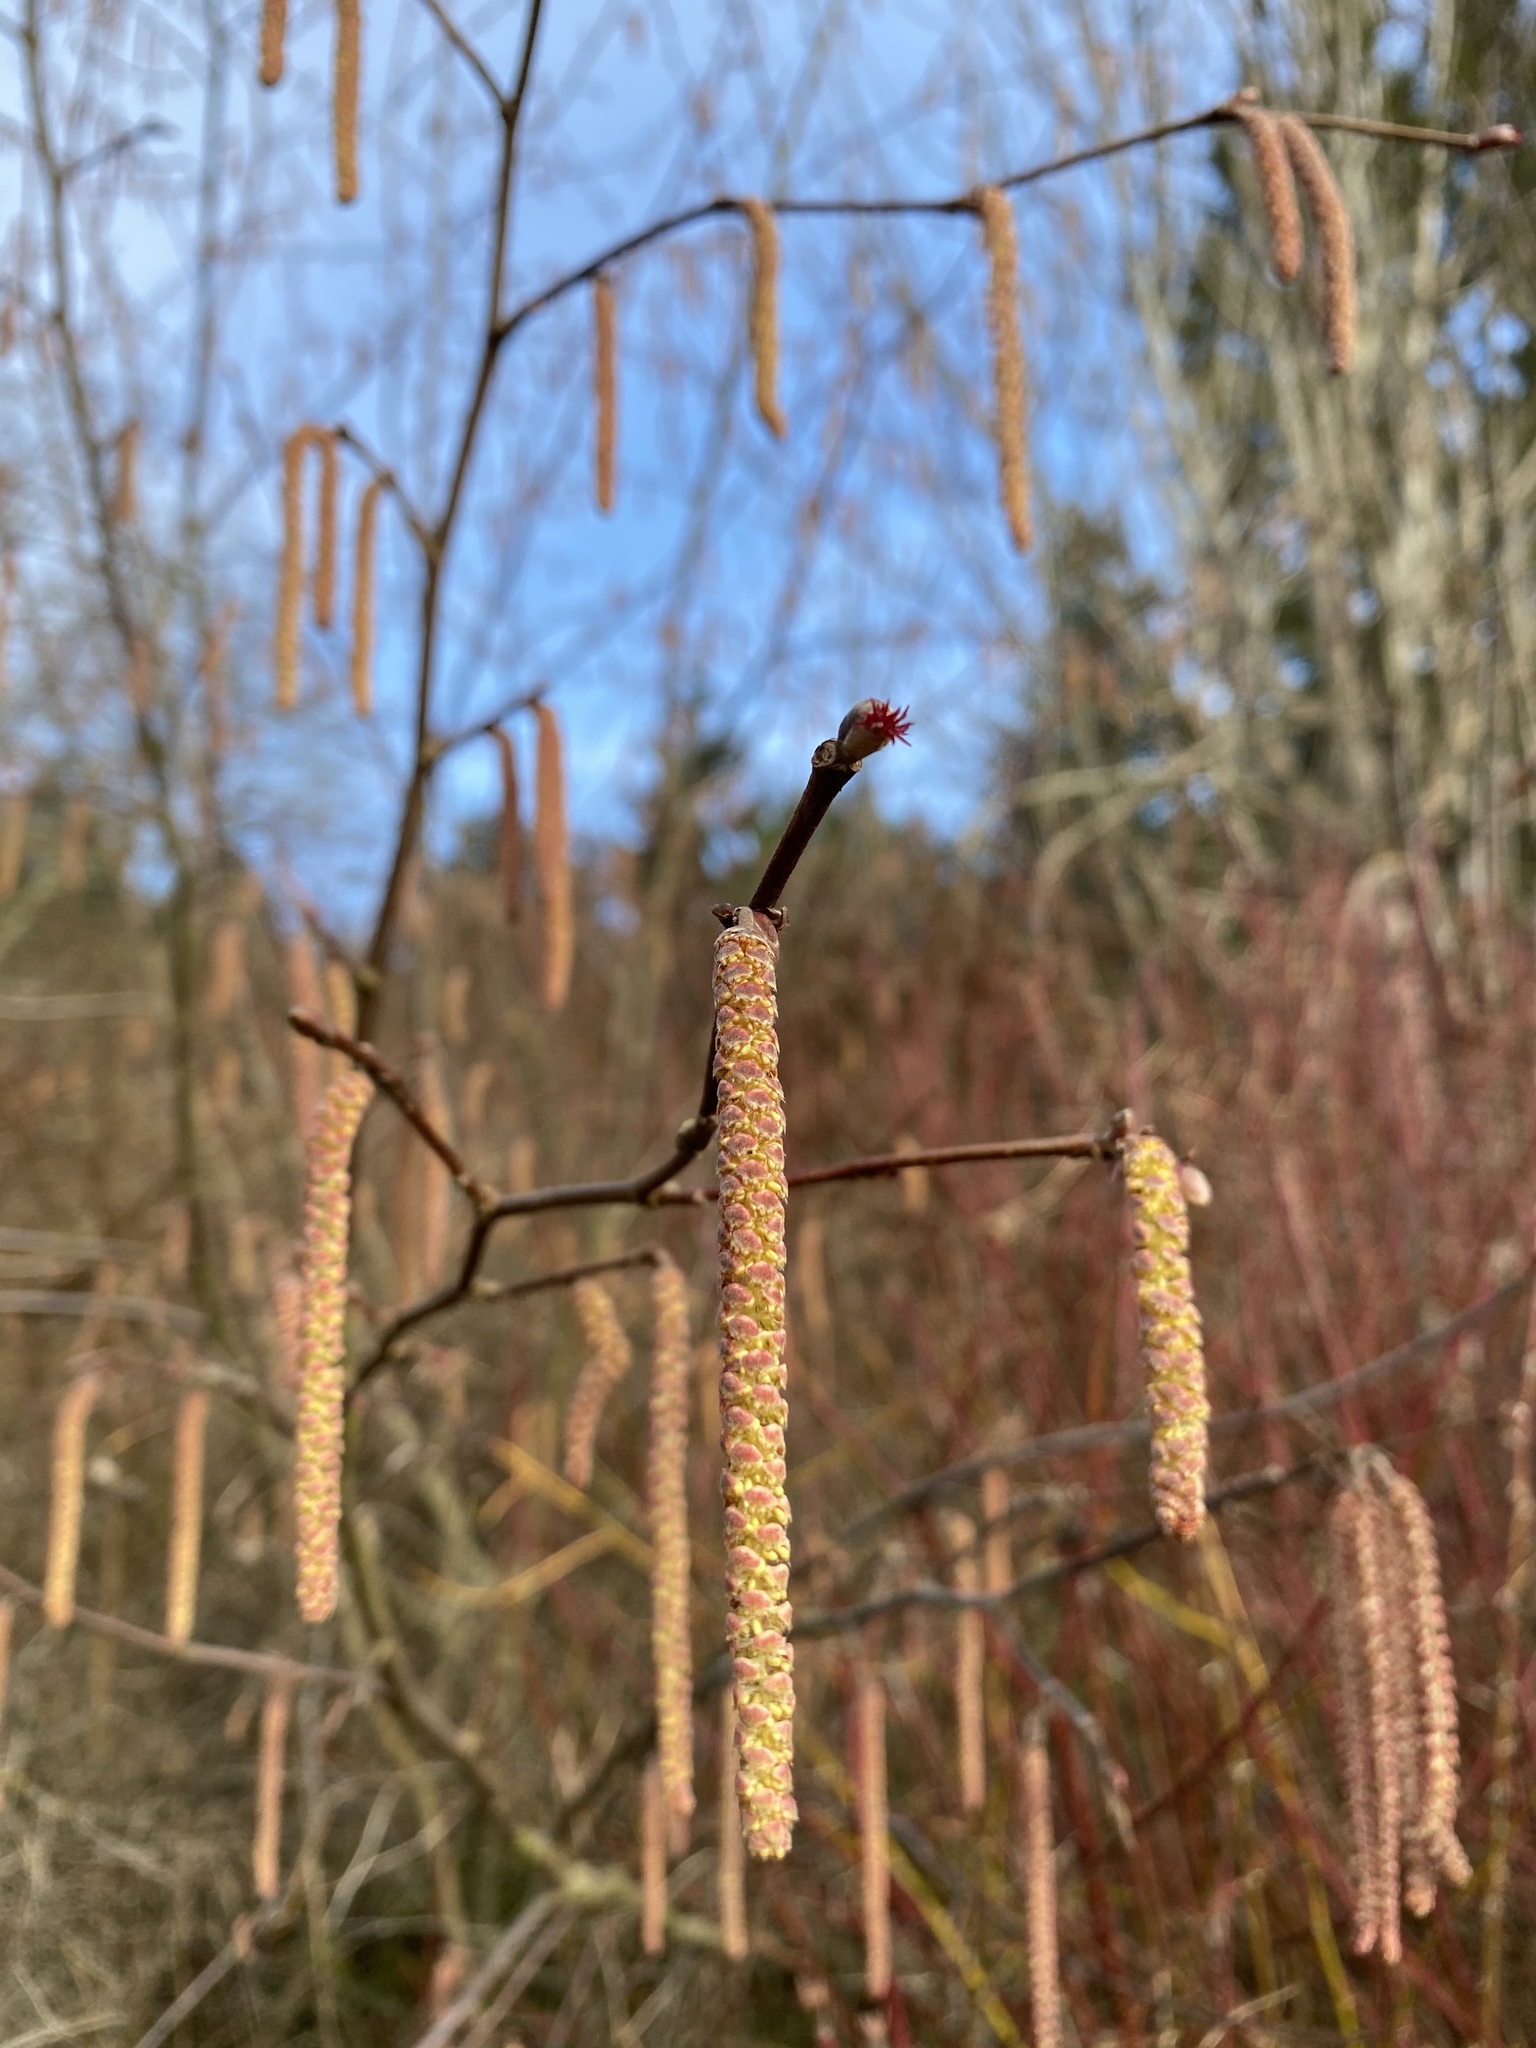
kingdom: Plantae
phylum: Tracheophyta
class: Magnoliopsida
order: Fagales
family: Betulaceae
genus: Corylus
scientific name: Corylus cornuta
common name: Beaked hazel
